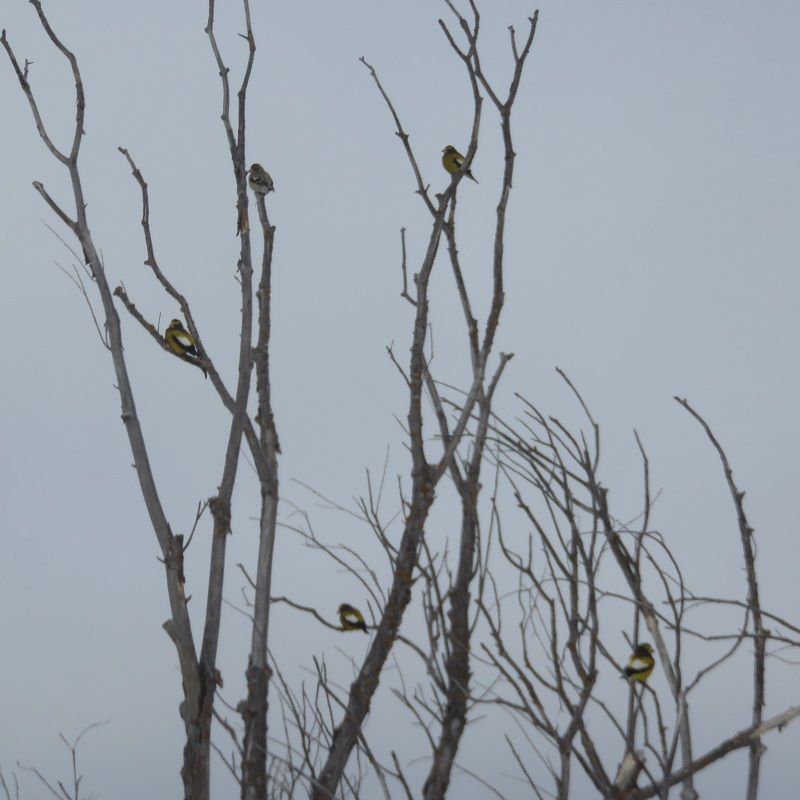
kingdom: Animalia
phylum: Chordata
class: Aves
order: Passeriformes
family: Fringillidae
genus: Hesperiphona
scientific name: Hesperiphona vespertina
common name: Evening grosbeak
